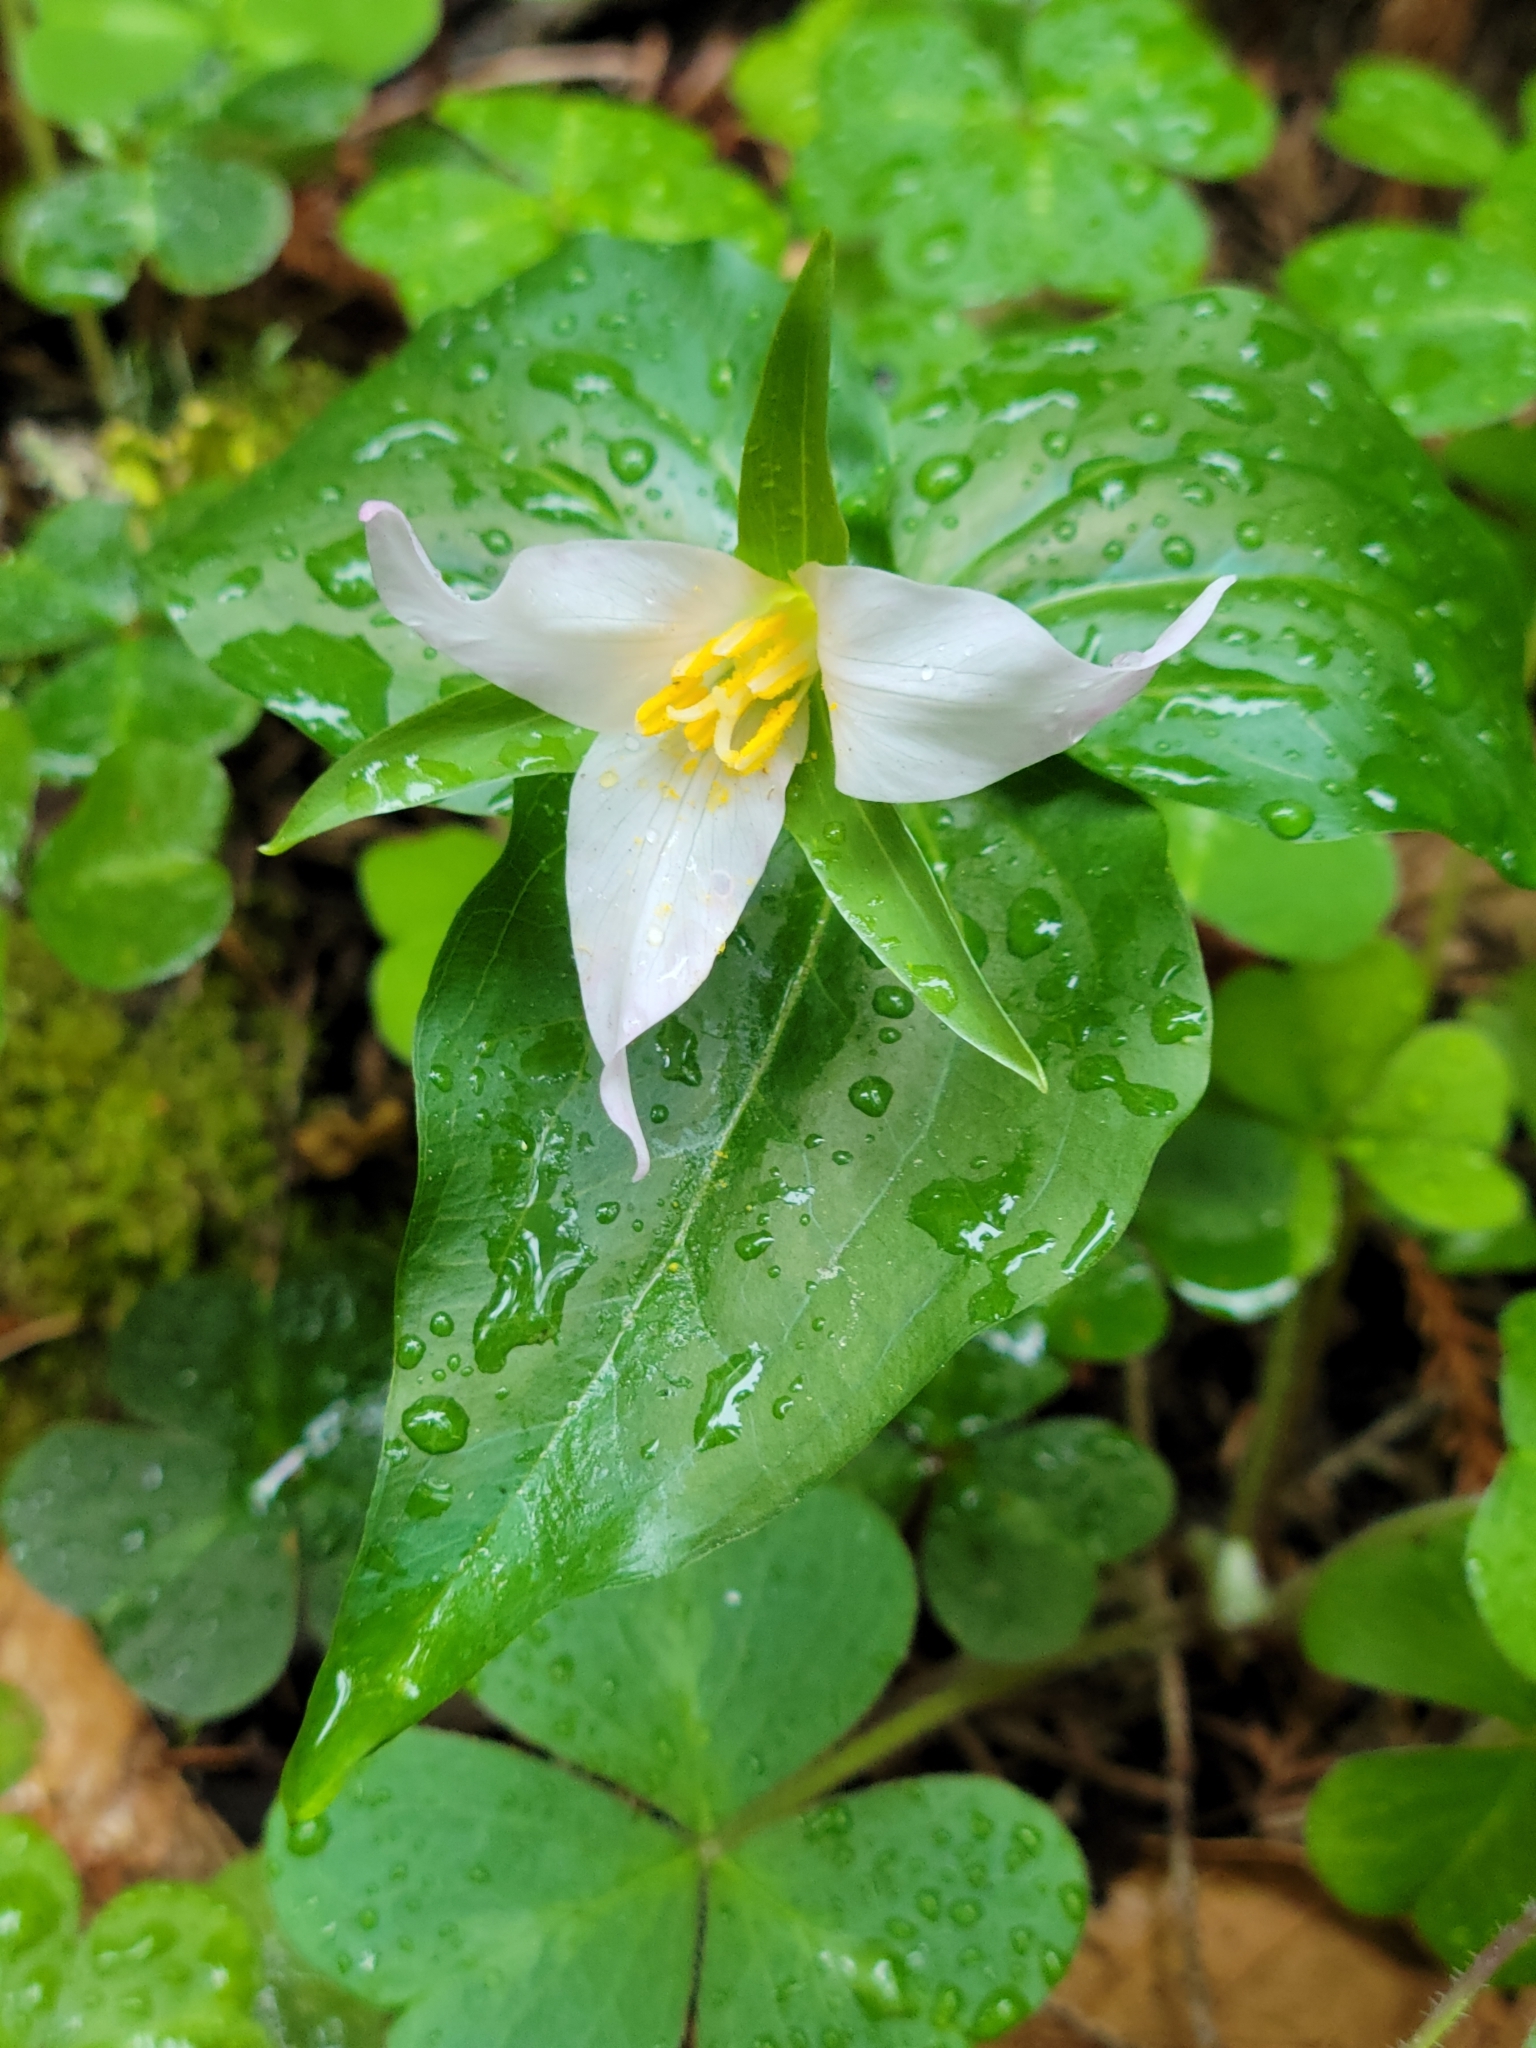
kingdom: Plantae
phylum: Tracheophyta
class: Liliopsida
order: Liliales
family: Melanthiaceae
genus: Trillium
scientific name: Trillium ovatum
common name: Pacific trillium
